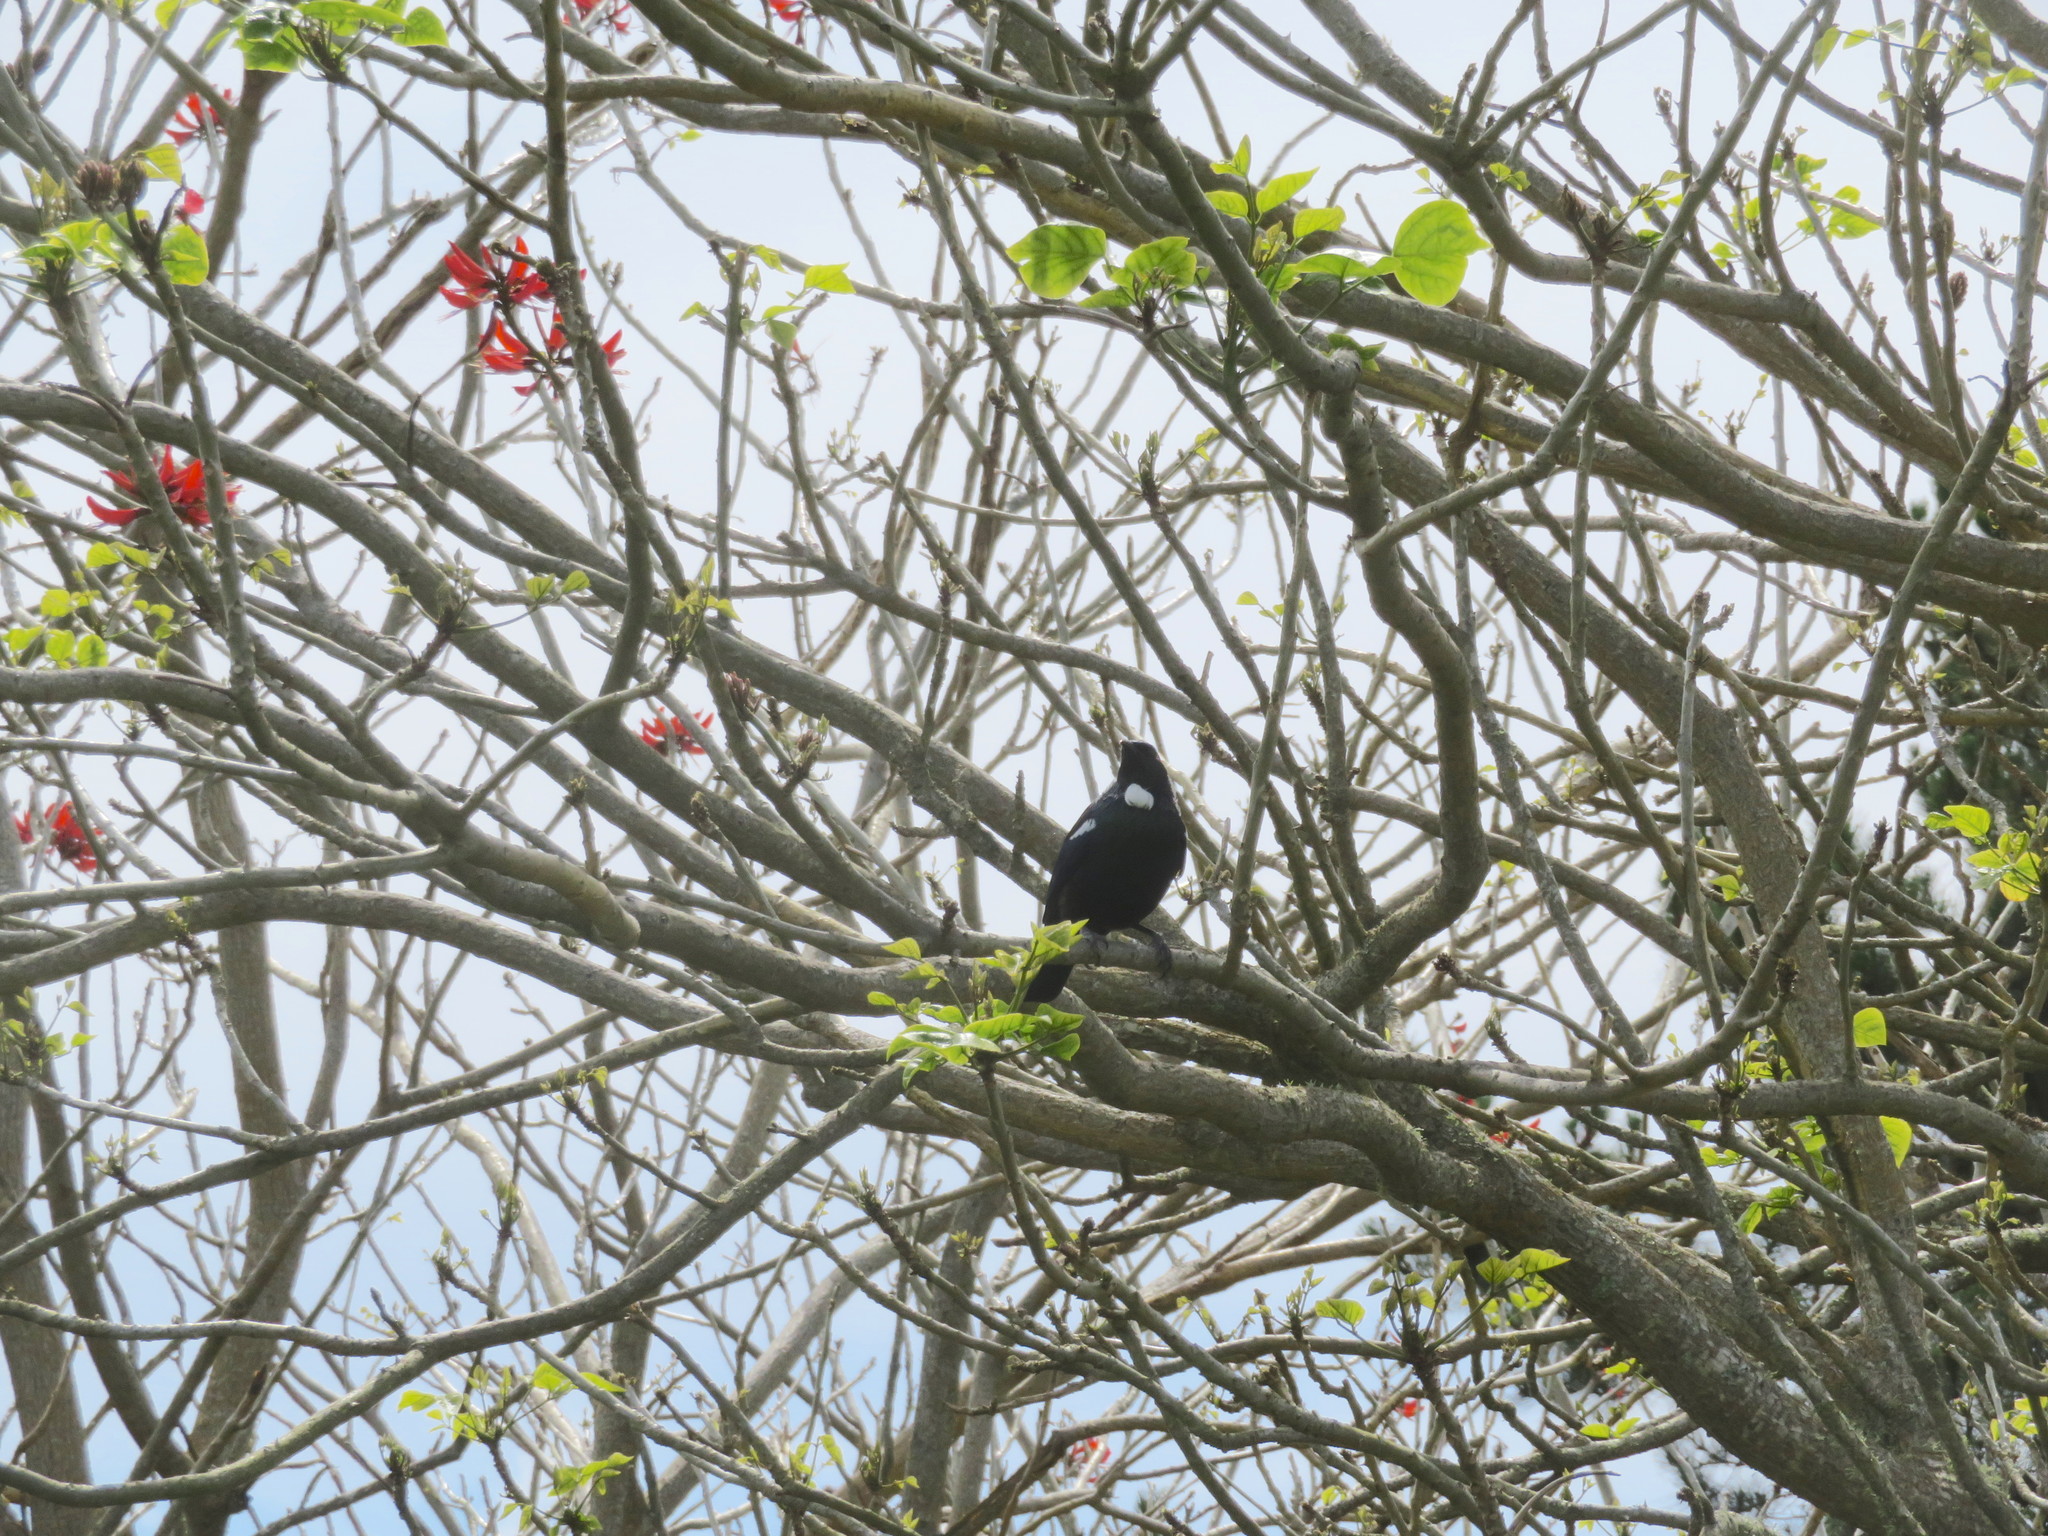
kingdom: Animalia
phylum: Chordata
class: Aves
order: Passeriformes
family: Meliphagidae
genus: Prosthemadera
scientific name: Prosthemadera novaeseelandiae
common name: Tui
